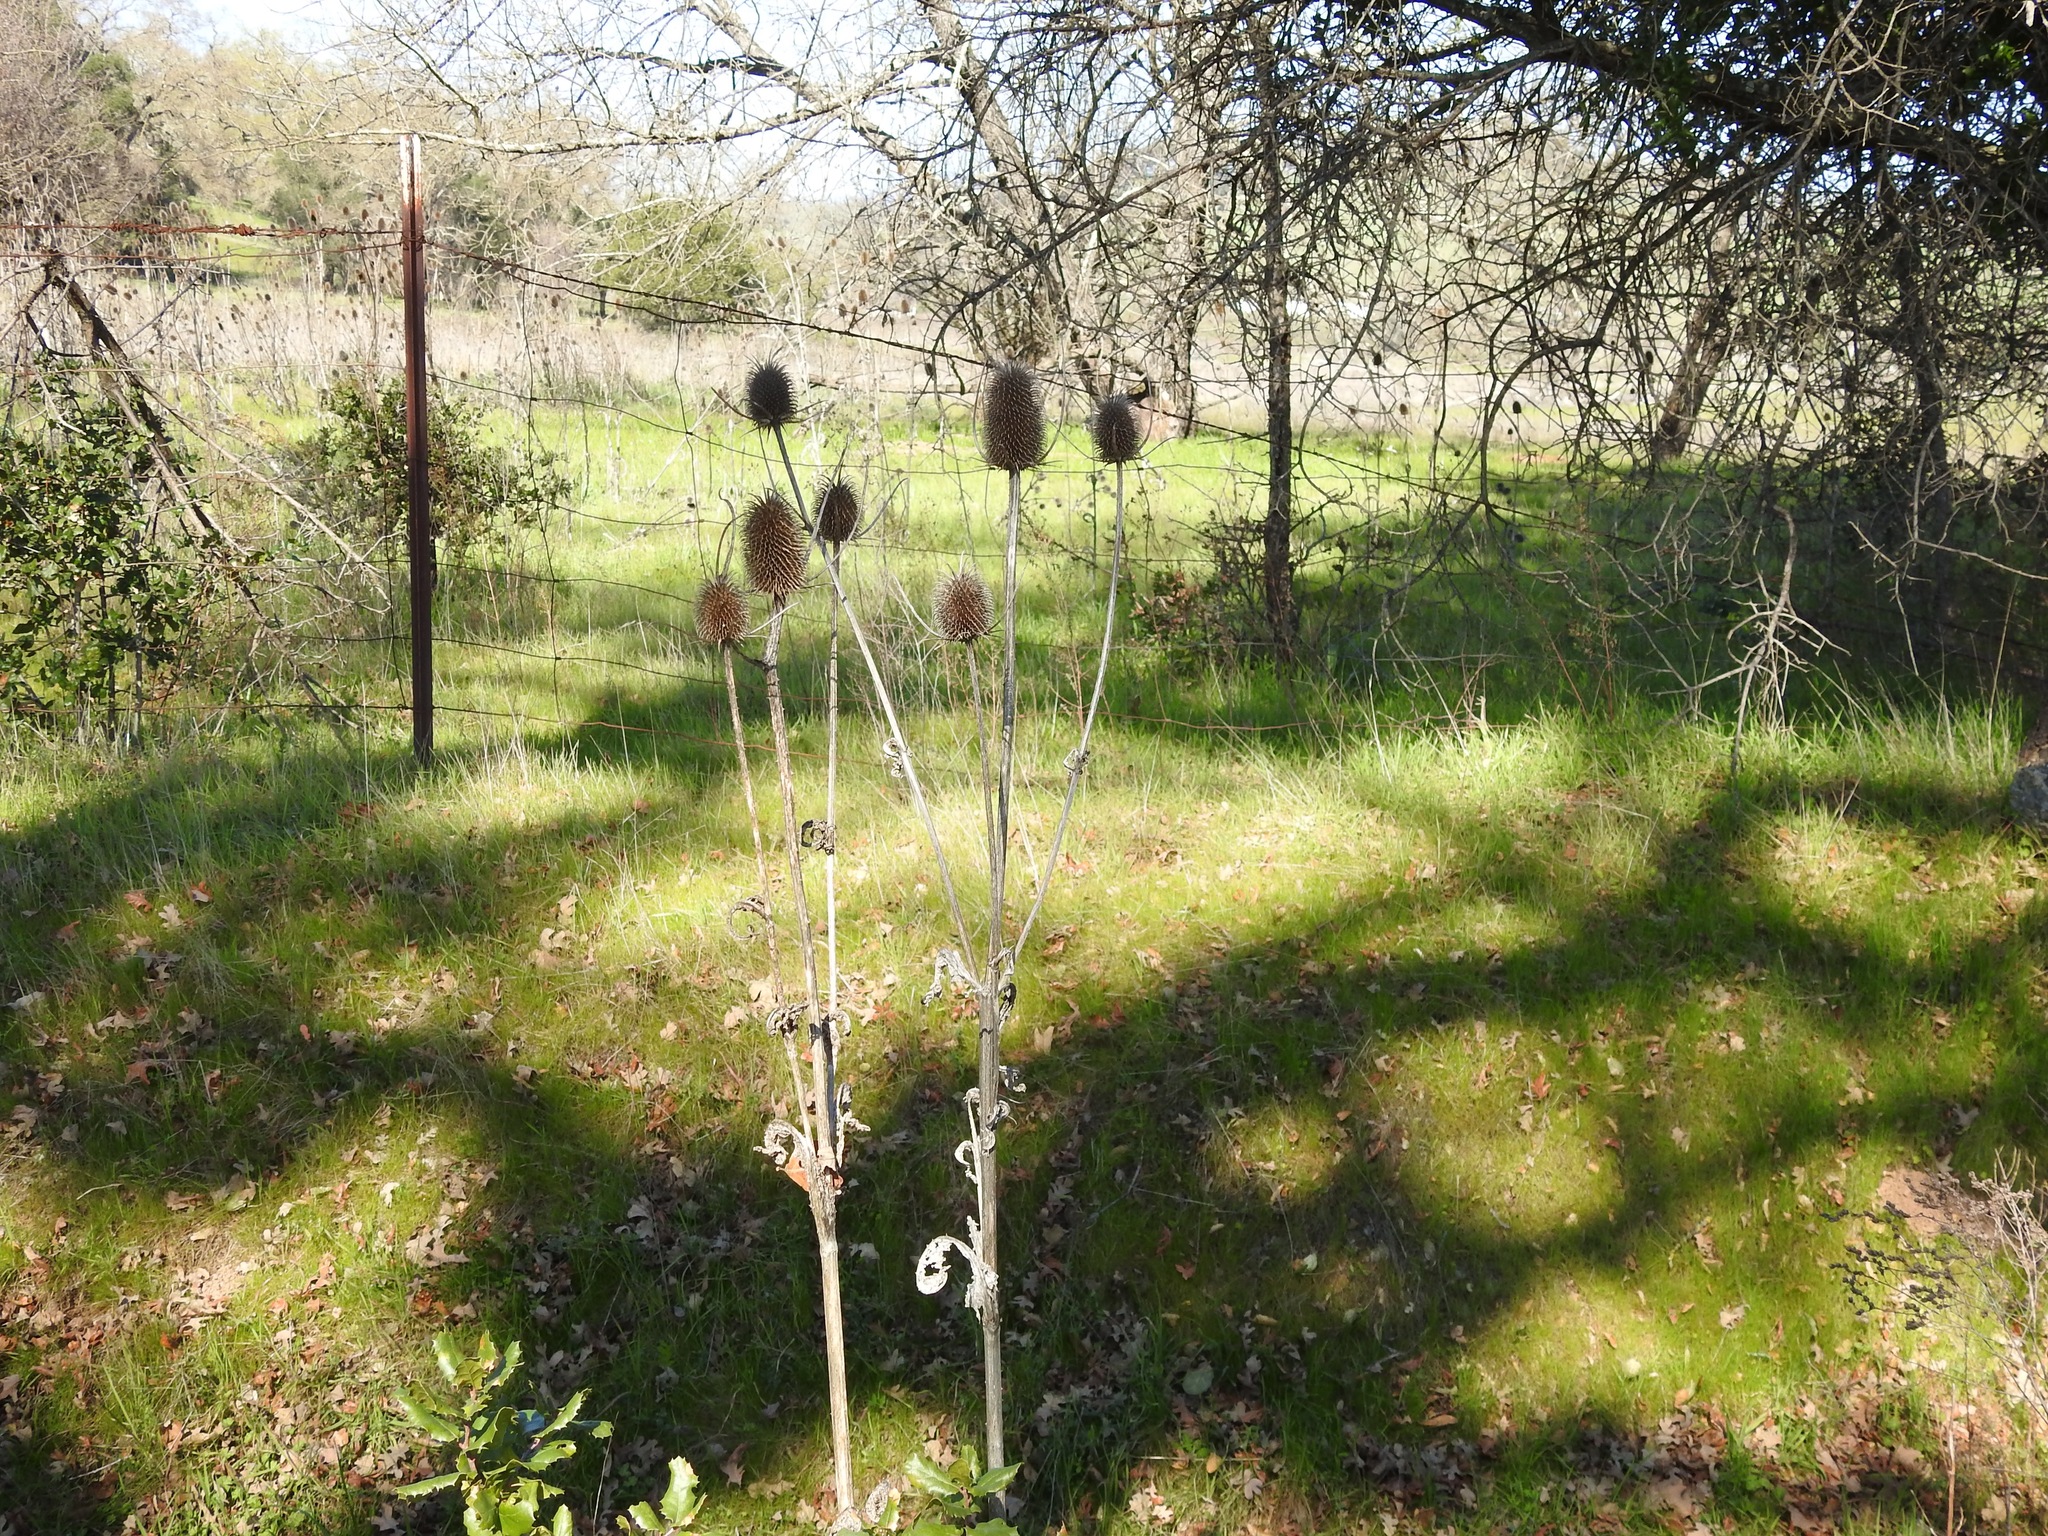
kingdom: Plantae
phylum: Tracheophyta
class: Magnoliopsida
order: Dipsacales
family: Caprifoliaceae
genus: Dipsacus
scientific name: Dipsacus sativus
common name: Fuller's teasel
